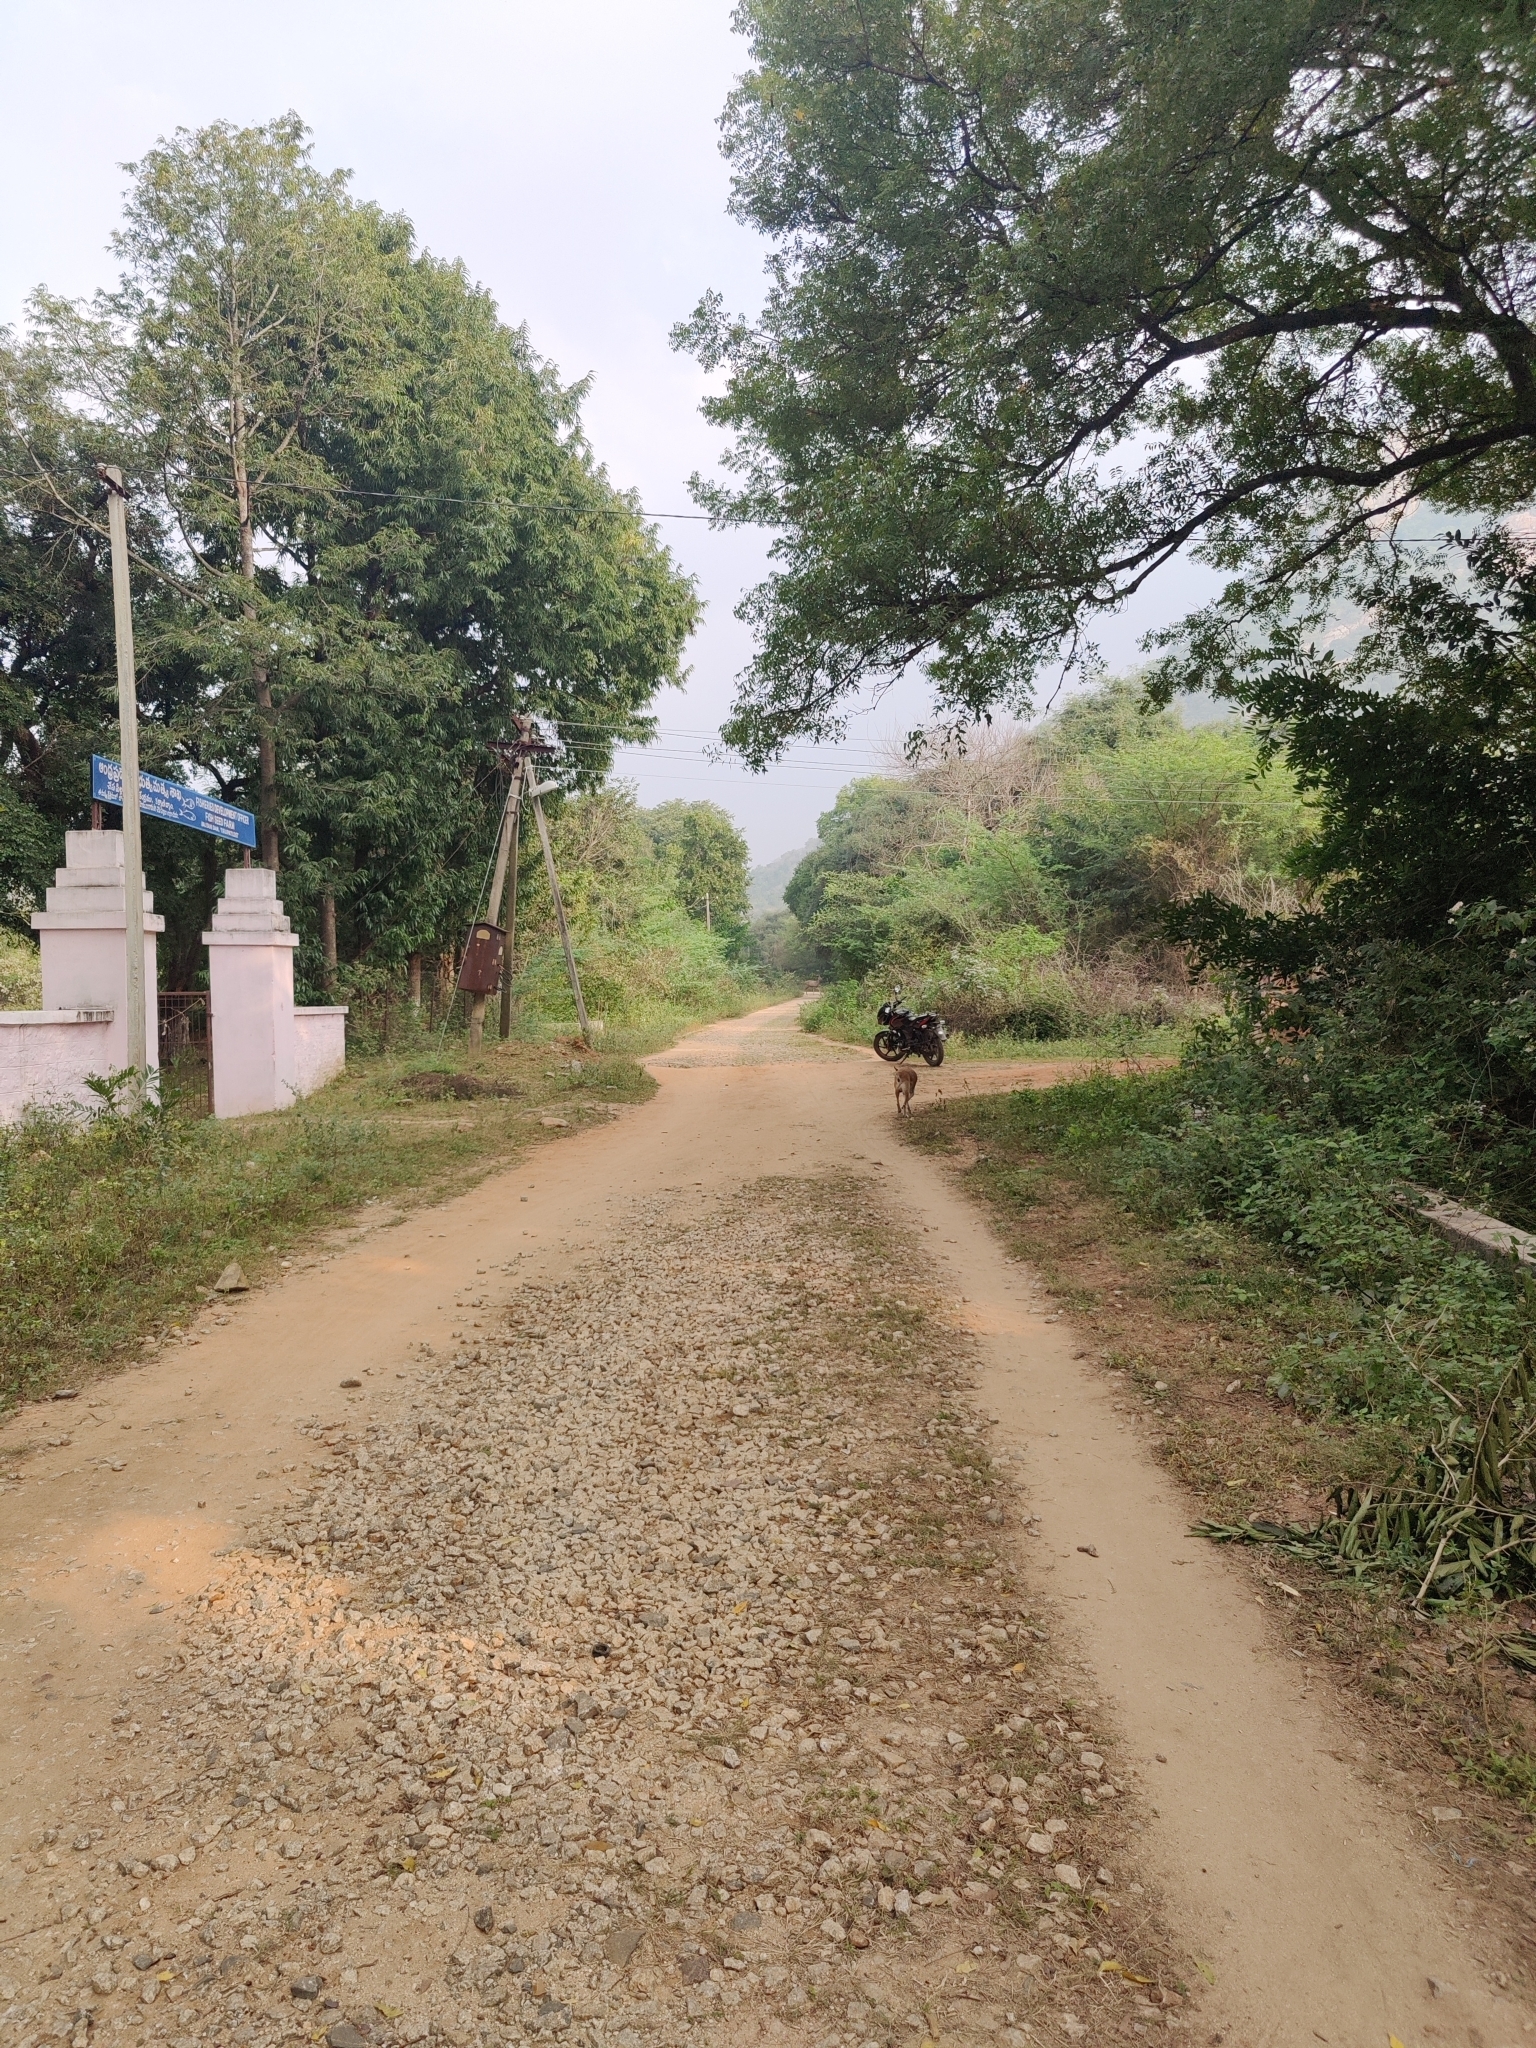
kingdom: Animalia
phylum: Chordata
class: Mammalia
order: Artiodactyla
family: Cervidae
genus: Rusa
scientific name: Rusa unicolor
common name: Sambar
